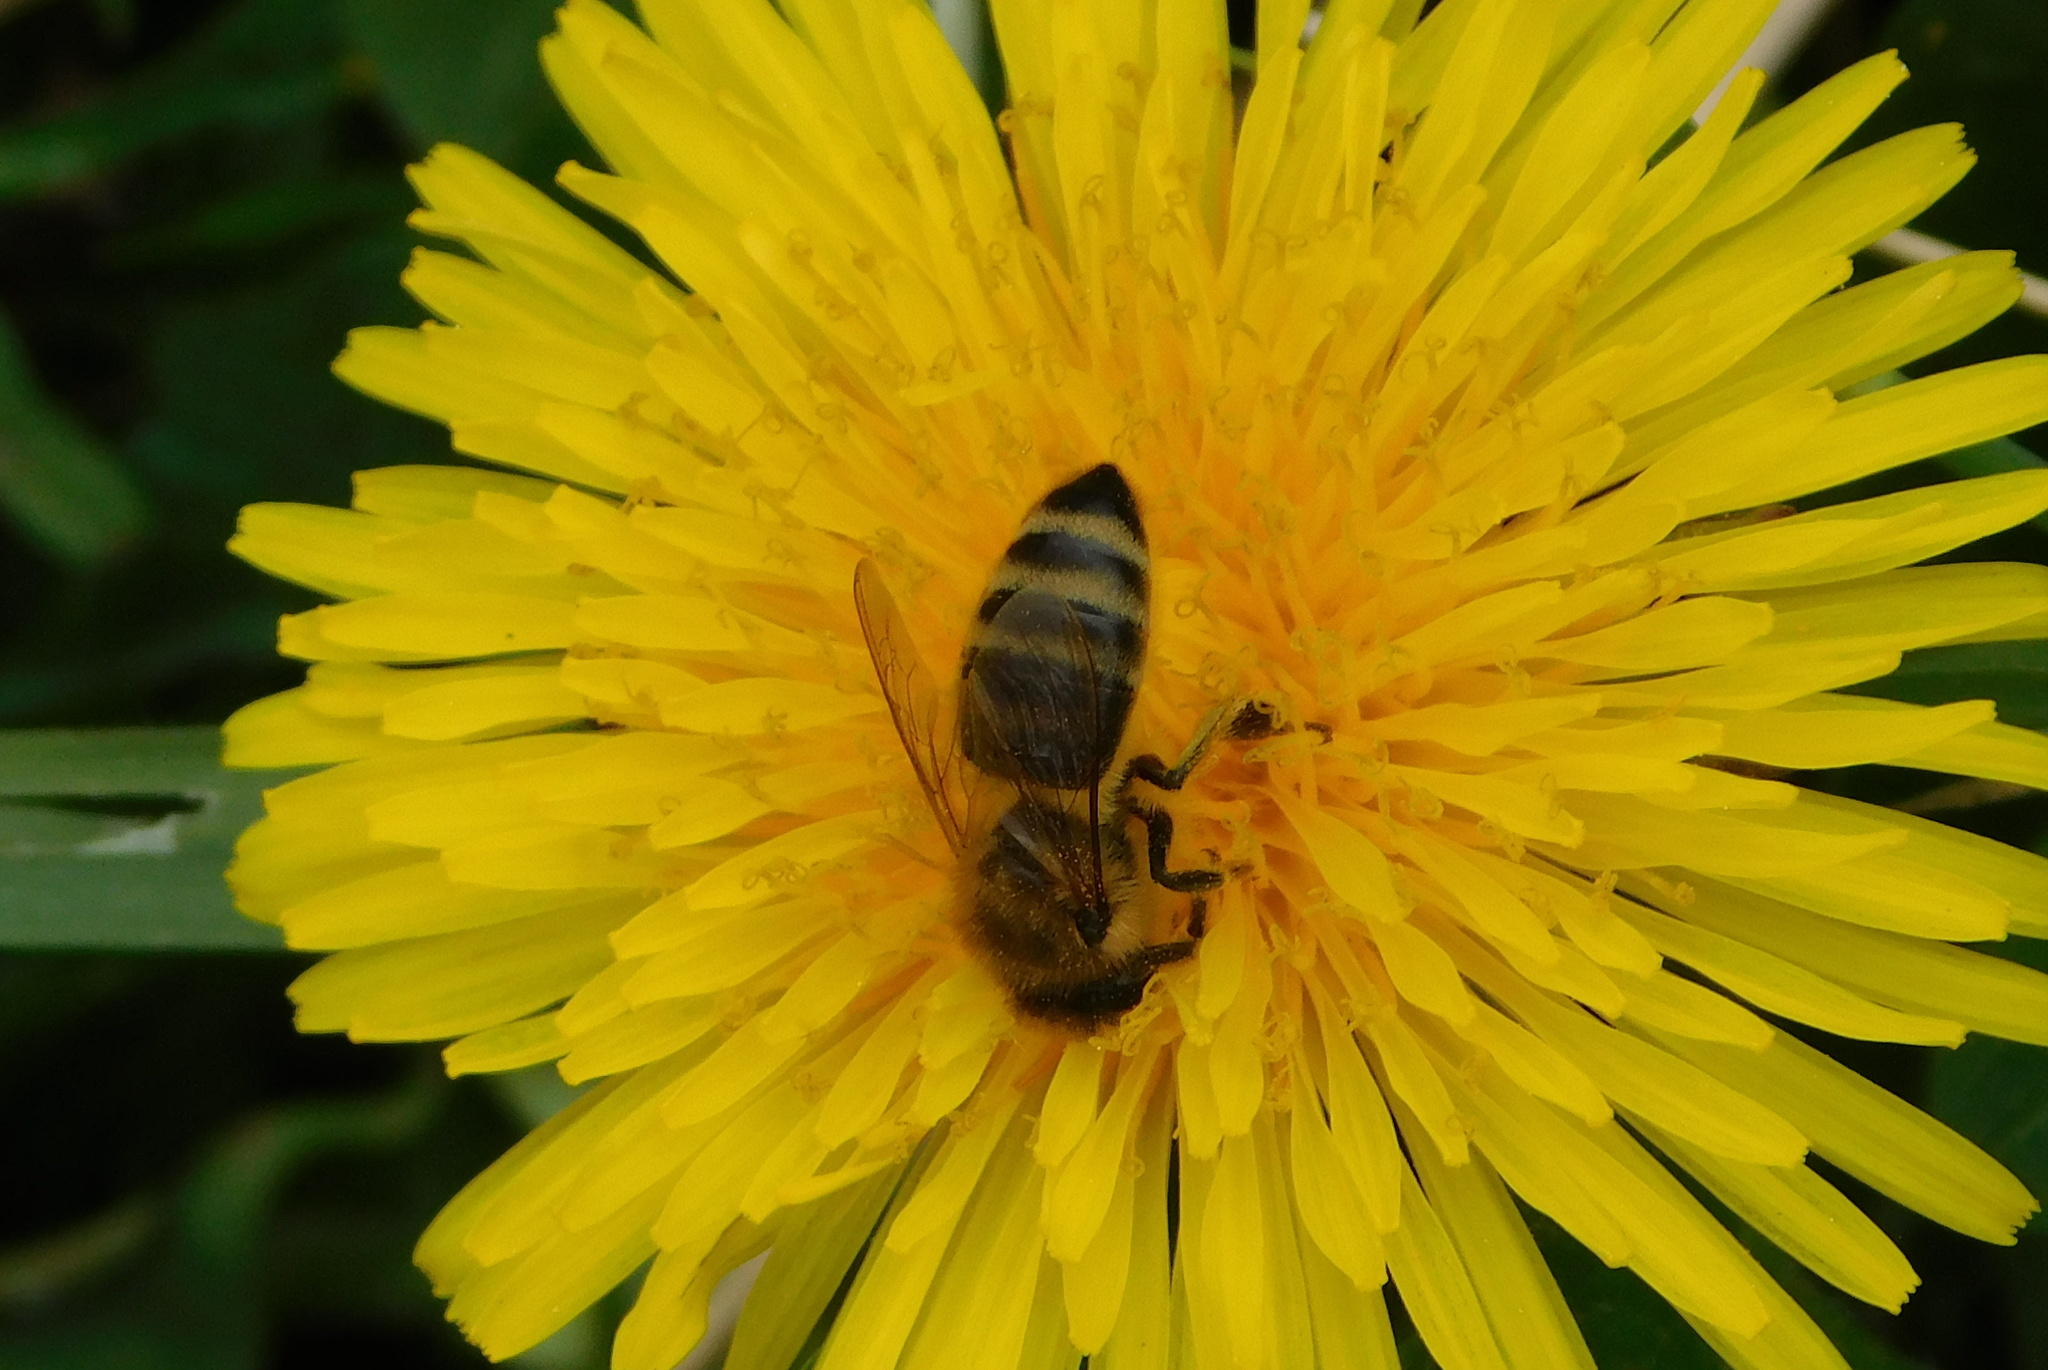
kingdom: Animalia
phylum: Arthropoda
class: Insecta
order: Hymenoptera
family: Apidae
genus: Apis
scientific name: Apis mellifera
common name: Honey bee
